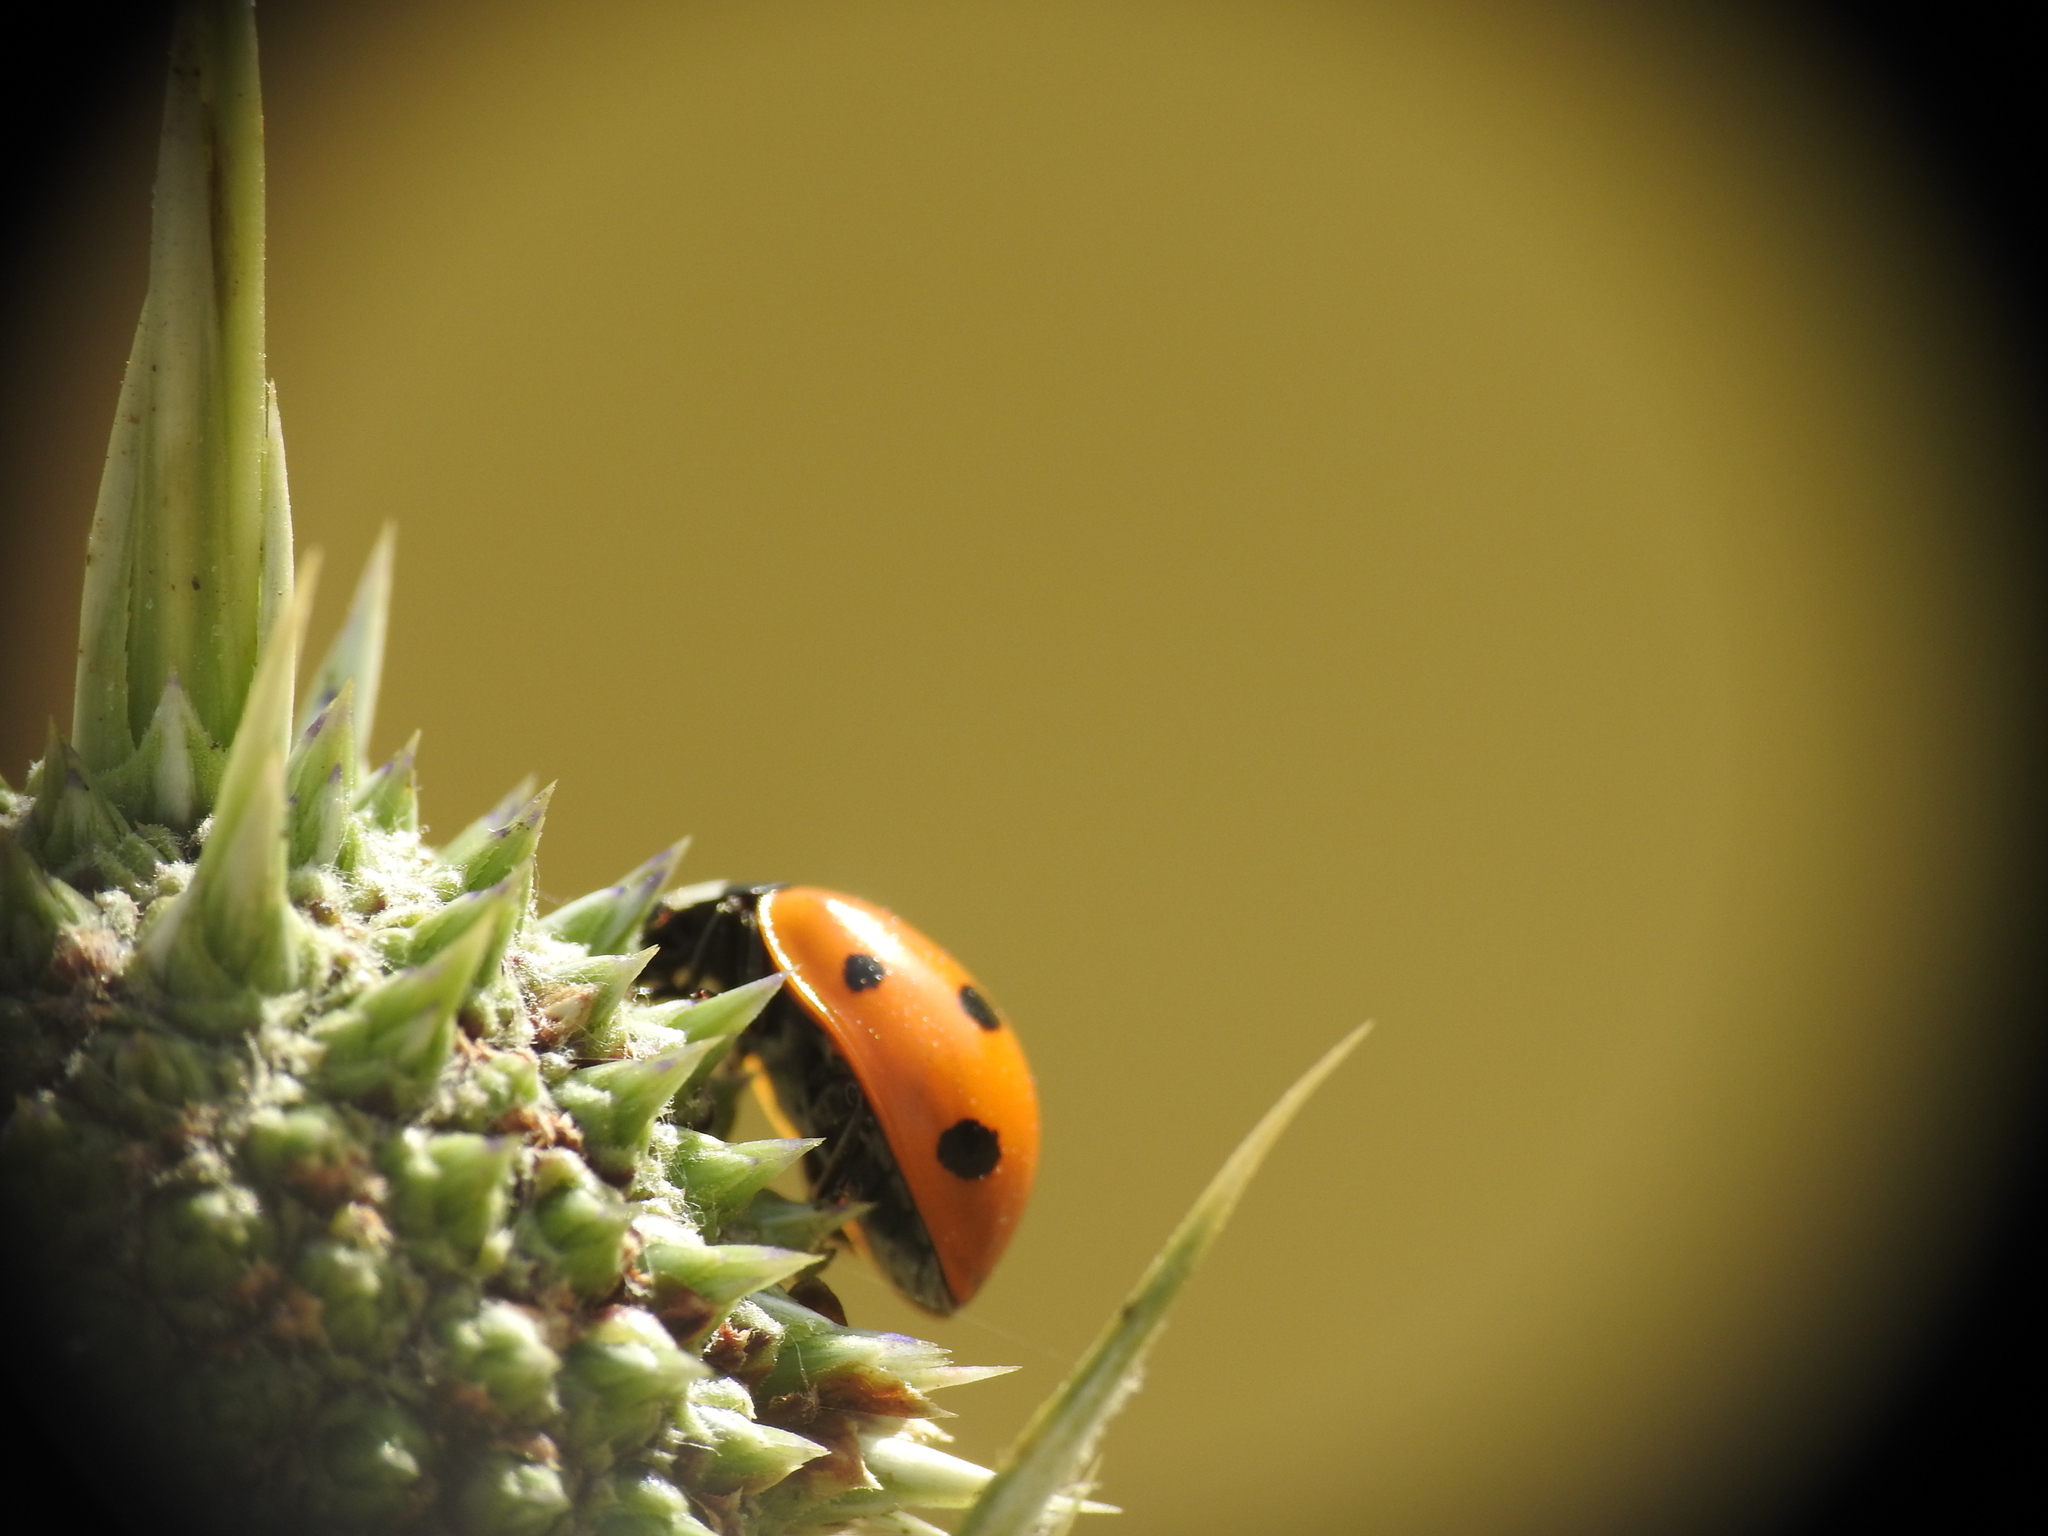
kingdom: Animalia
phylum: Arthropoda
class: Insecta
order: Coleoptera
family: Coccinellidae
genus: Coccinella
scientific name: Coccinella septempunctata
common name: Sevenspotted lady beetle
